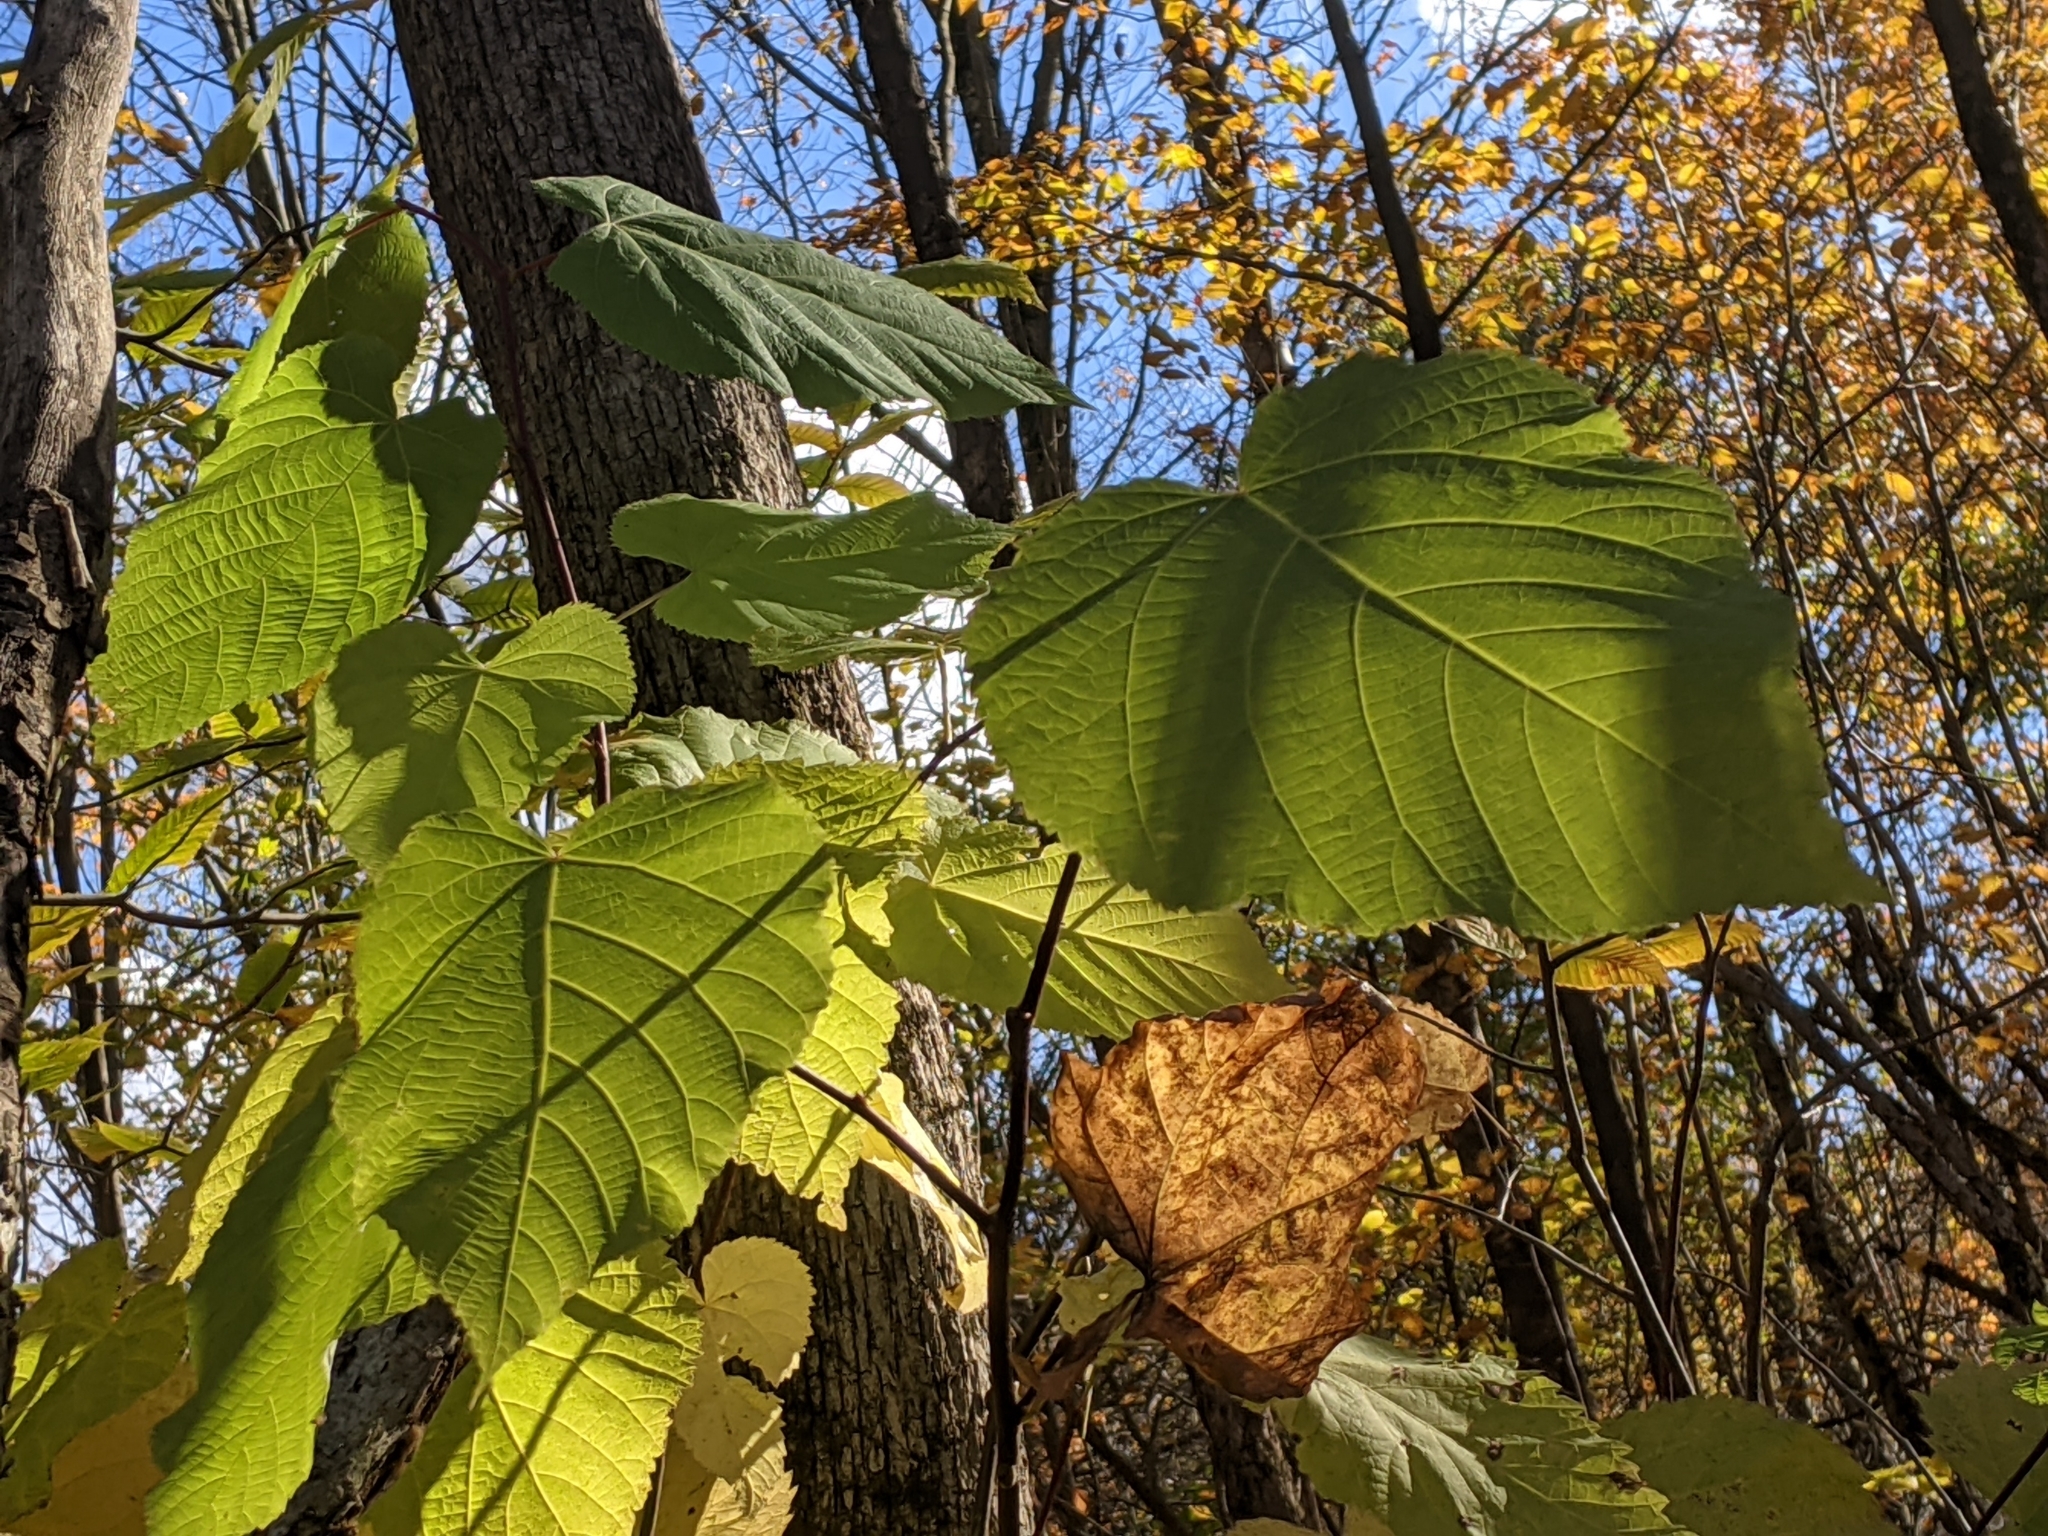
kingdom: Plantae
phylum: Tracheophyta
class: Magnoliopsida
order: Malvales
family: Malvaceae
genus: Tilia
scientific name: Tilia americana
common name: Basswood
